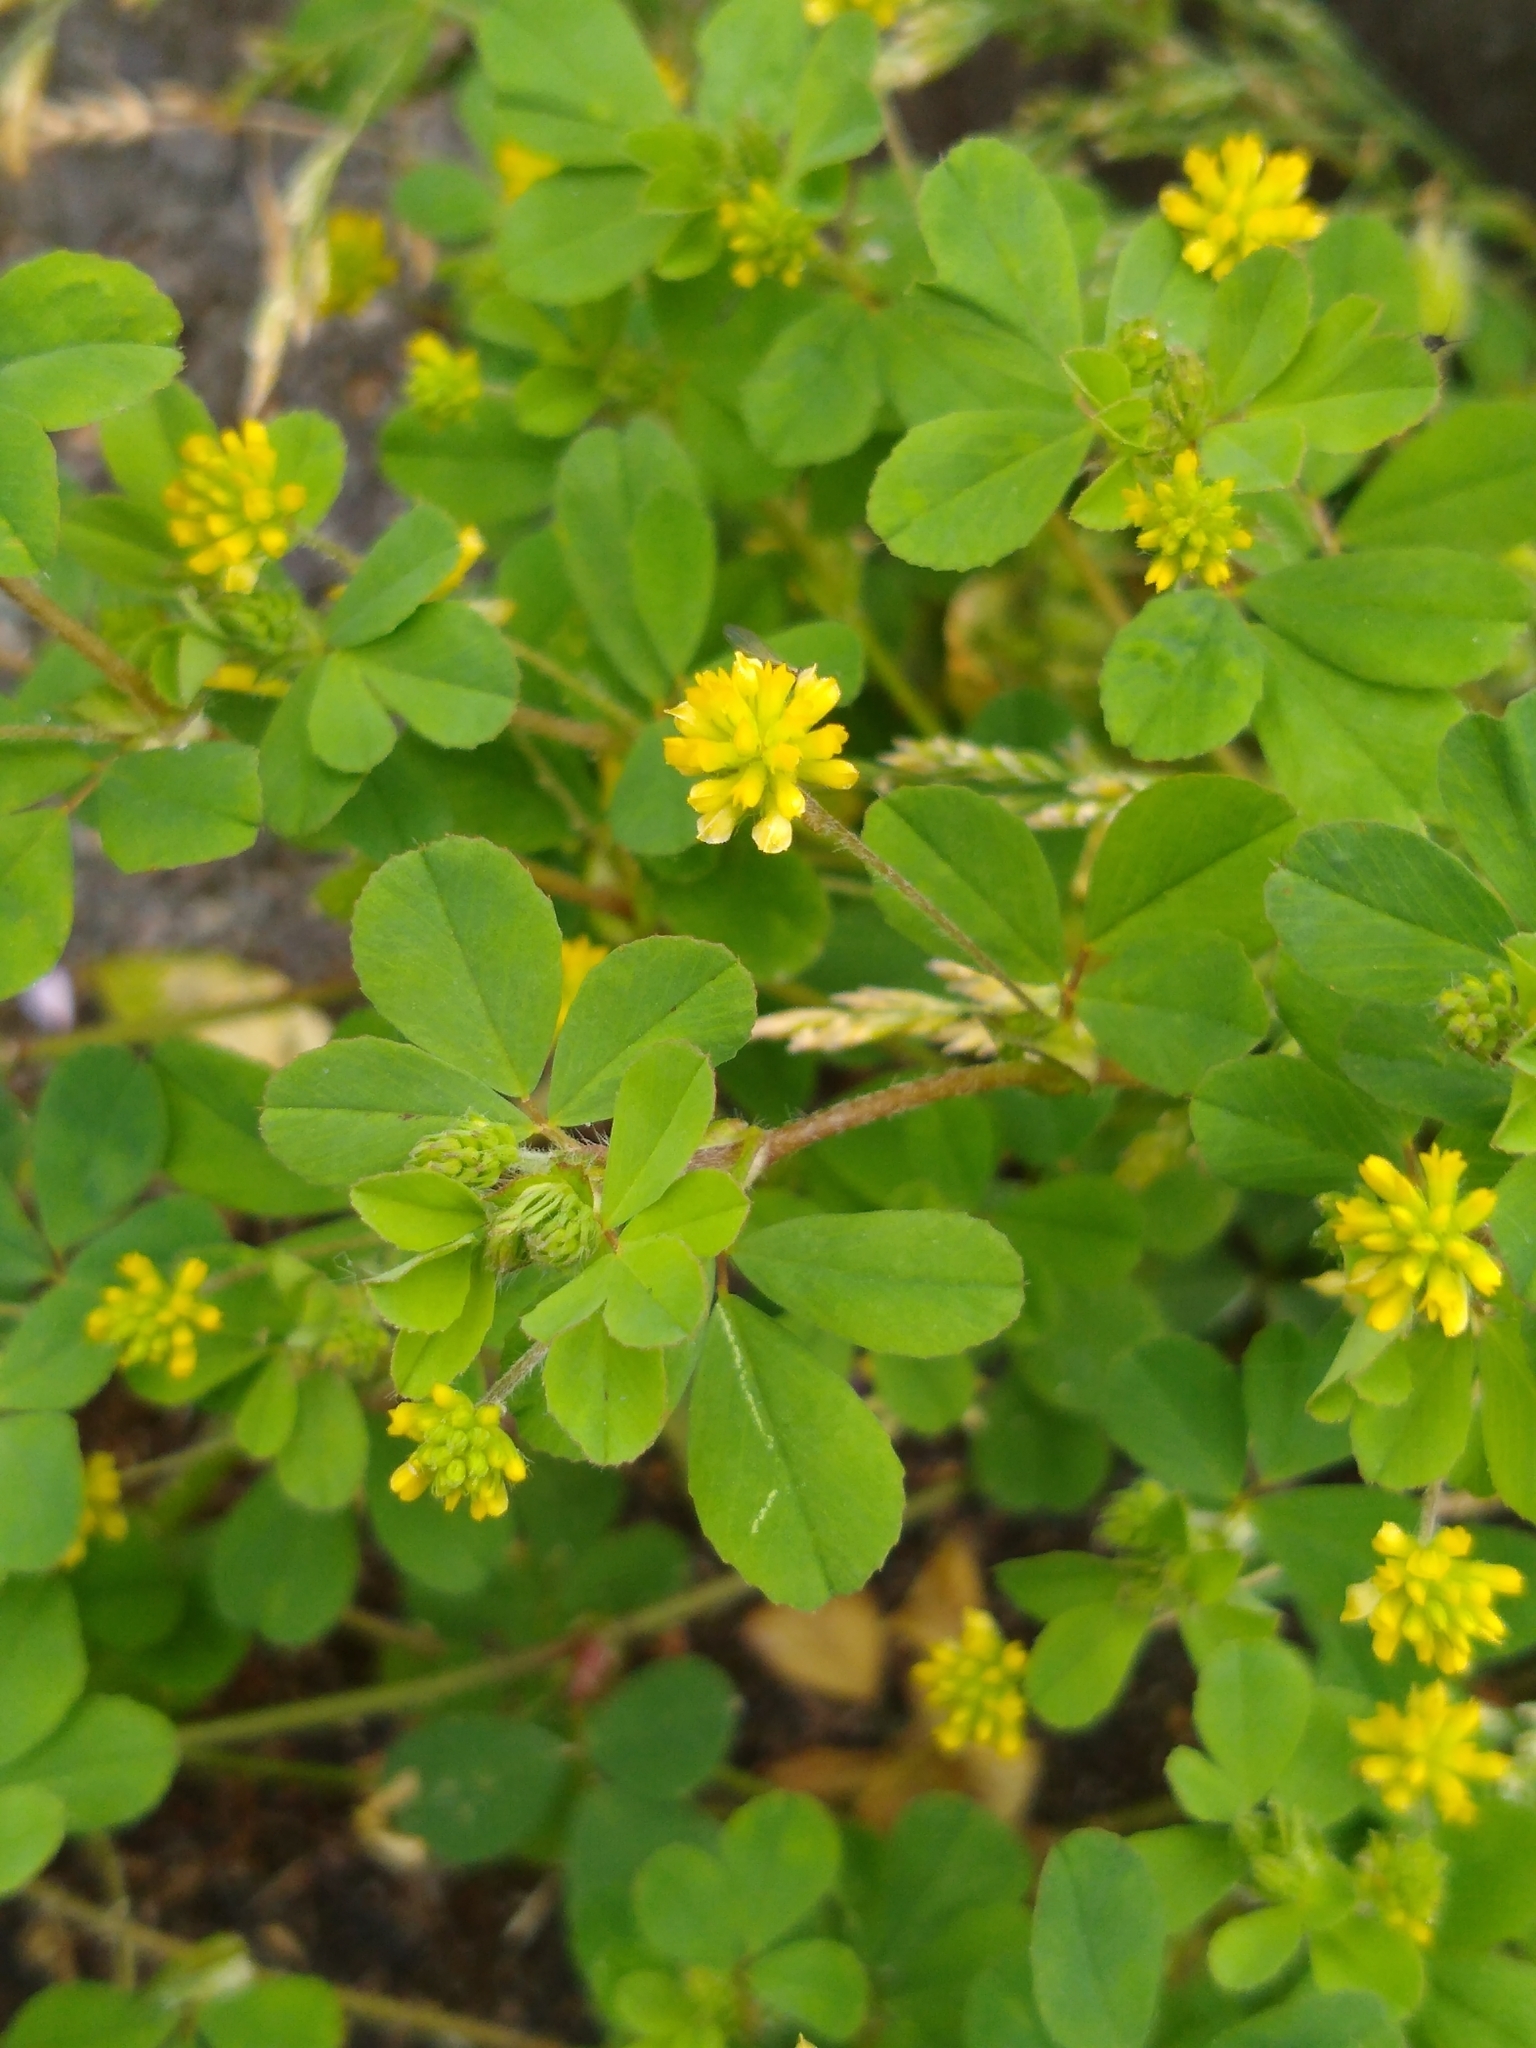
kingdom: Plantae
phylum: Tracheophyta
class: Magnoliopsida
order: Fabales
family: Fabaceae
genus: Trifolium
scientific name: Trifolium dubium
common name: Suckling clover
